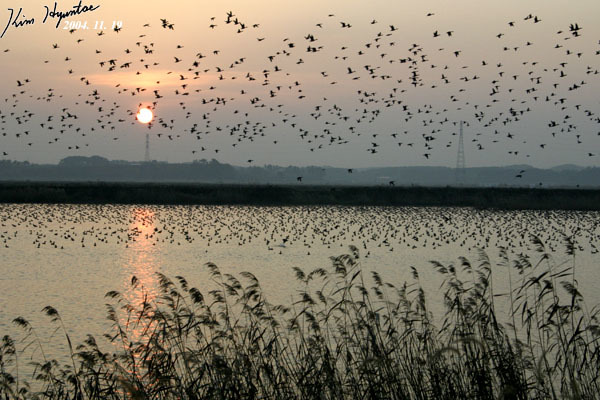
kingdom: Animalia
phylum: Chordata
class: Aves
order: Anseriformes
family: Anatidae
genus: Sibirionetta
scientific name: Sibirionetta formosa
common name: Baikal teal
